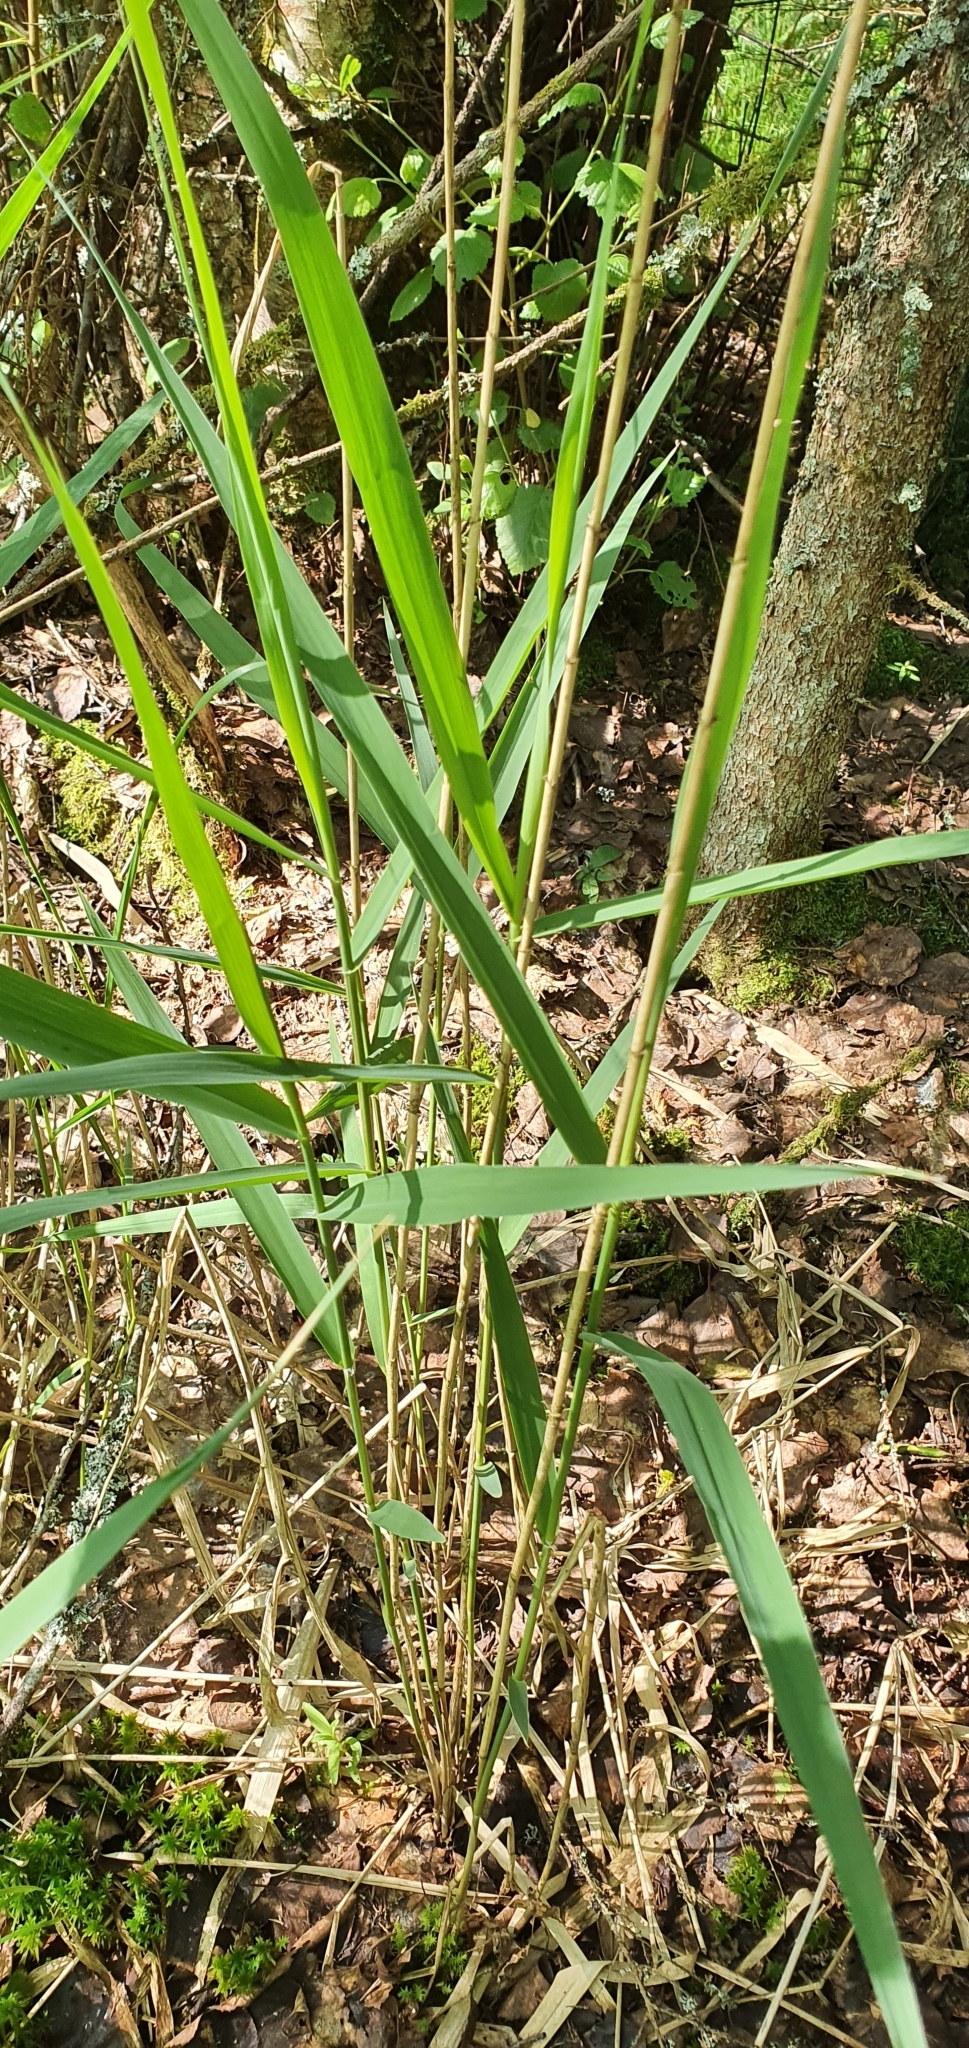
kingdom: Plantae
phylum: Tracheophyta
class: Liliopsida
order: Poales
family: Poaceae
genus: Phragmites
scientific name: Phragmites australis
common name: Common reed
